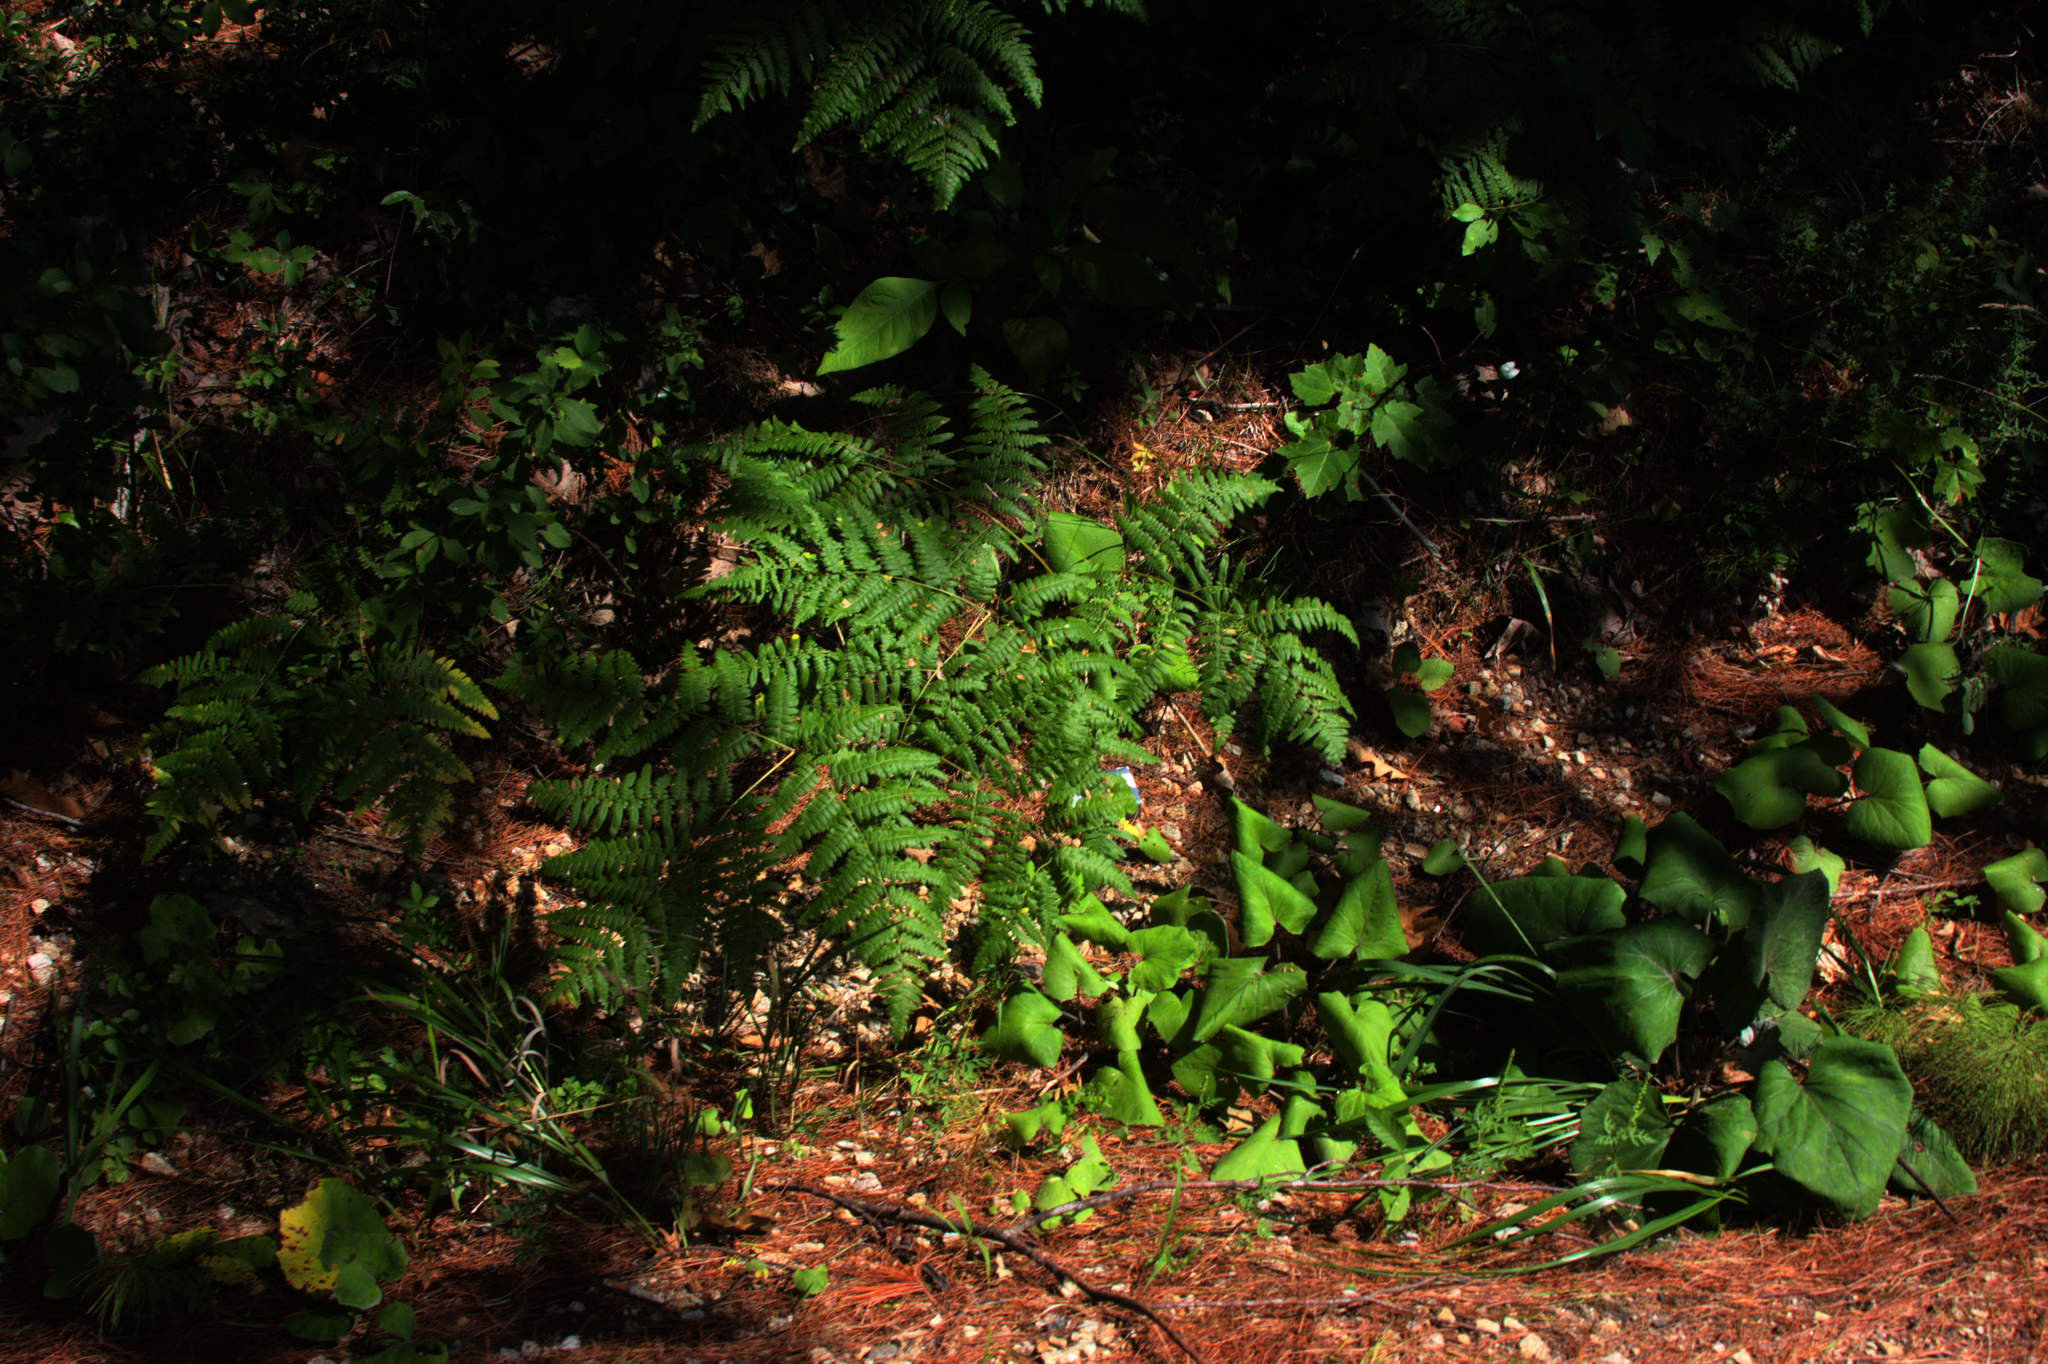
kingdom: Plantae
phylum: Tracheophyta
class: Magnoliopsida
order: Asterales
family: Asteraceae
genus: Tussilago
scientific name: Tussilago farfara
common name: Coltsfoot
